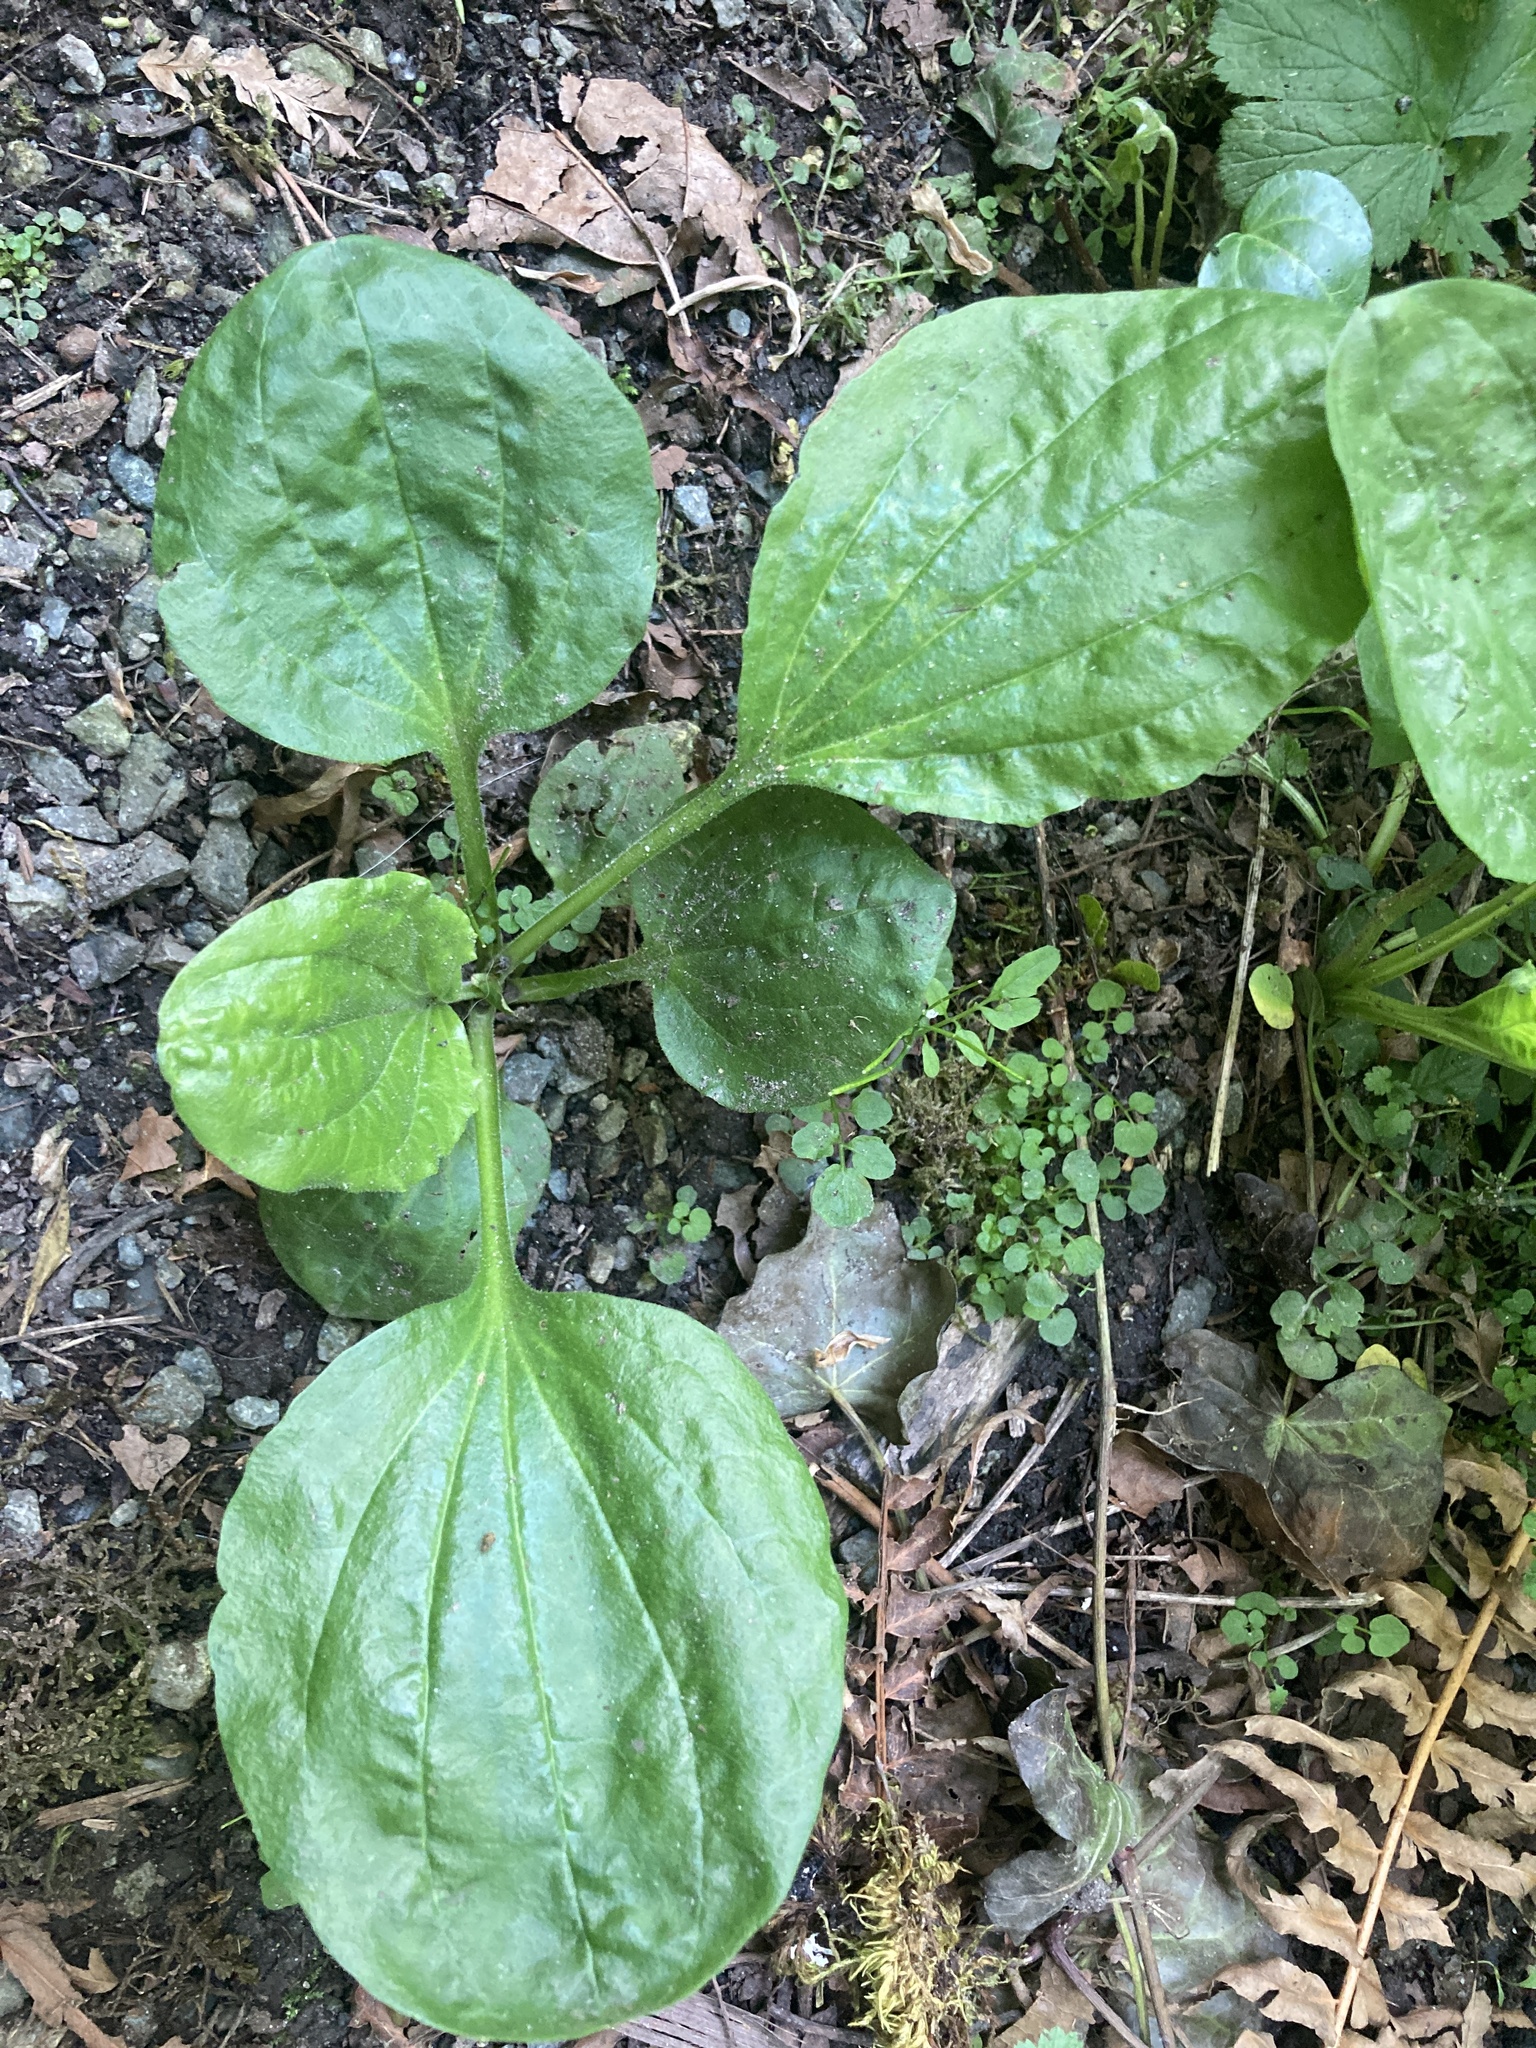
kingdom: Plantae
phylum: Tracheophyta
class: Magnoliopsida
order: Lamiales
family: Plantaginaceae
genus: Plantago
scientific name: Plantago major
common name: Common plantain
